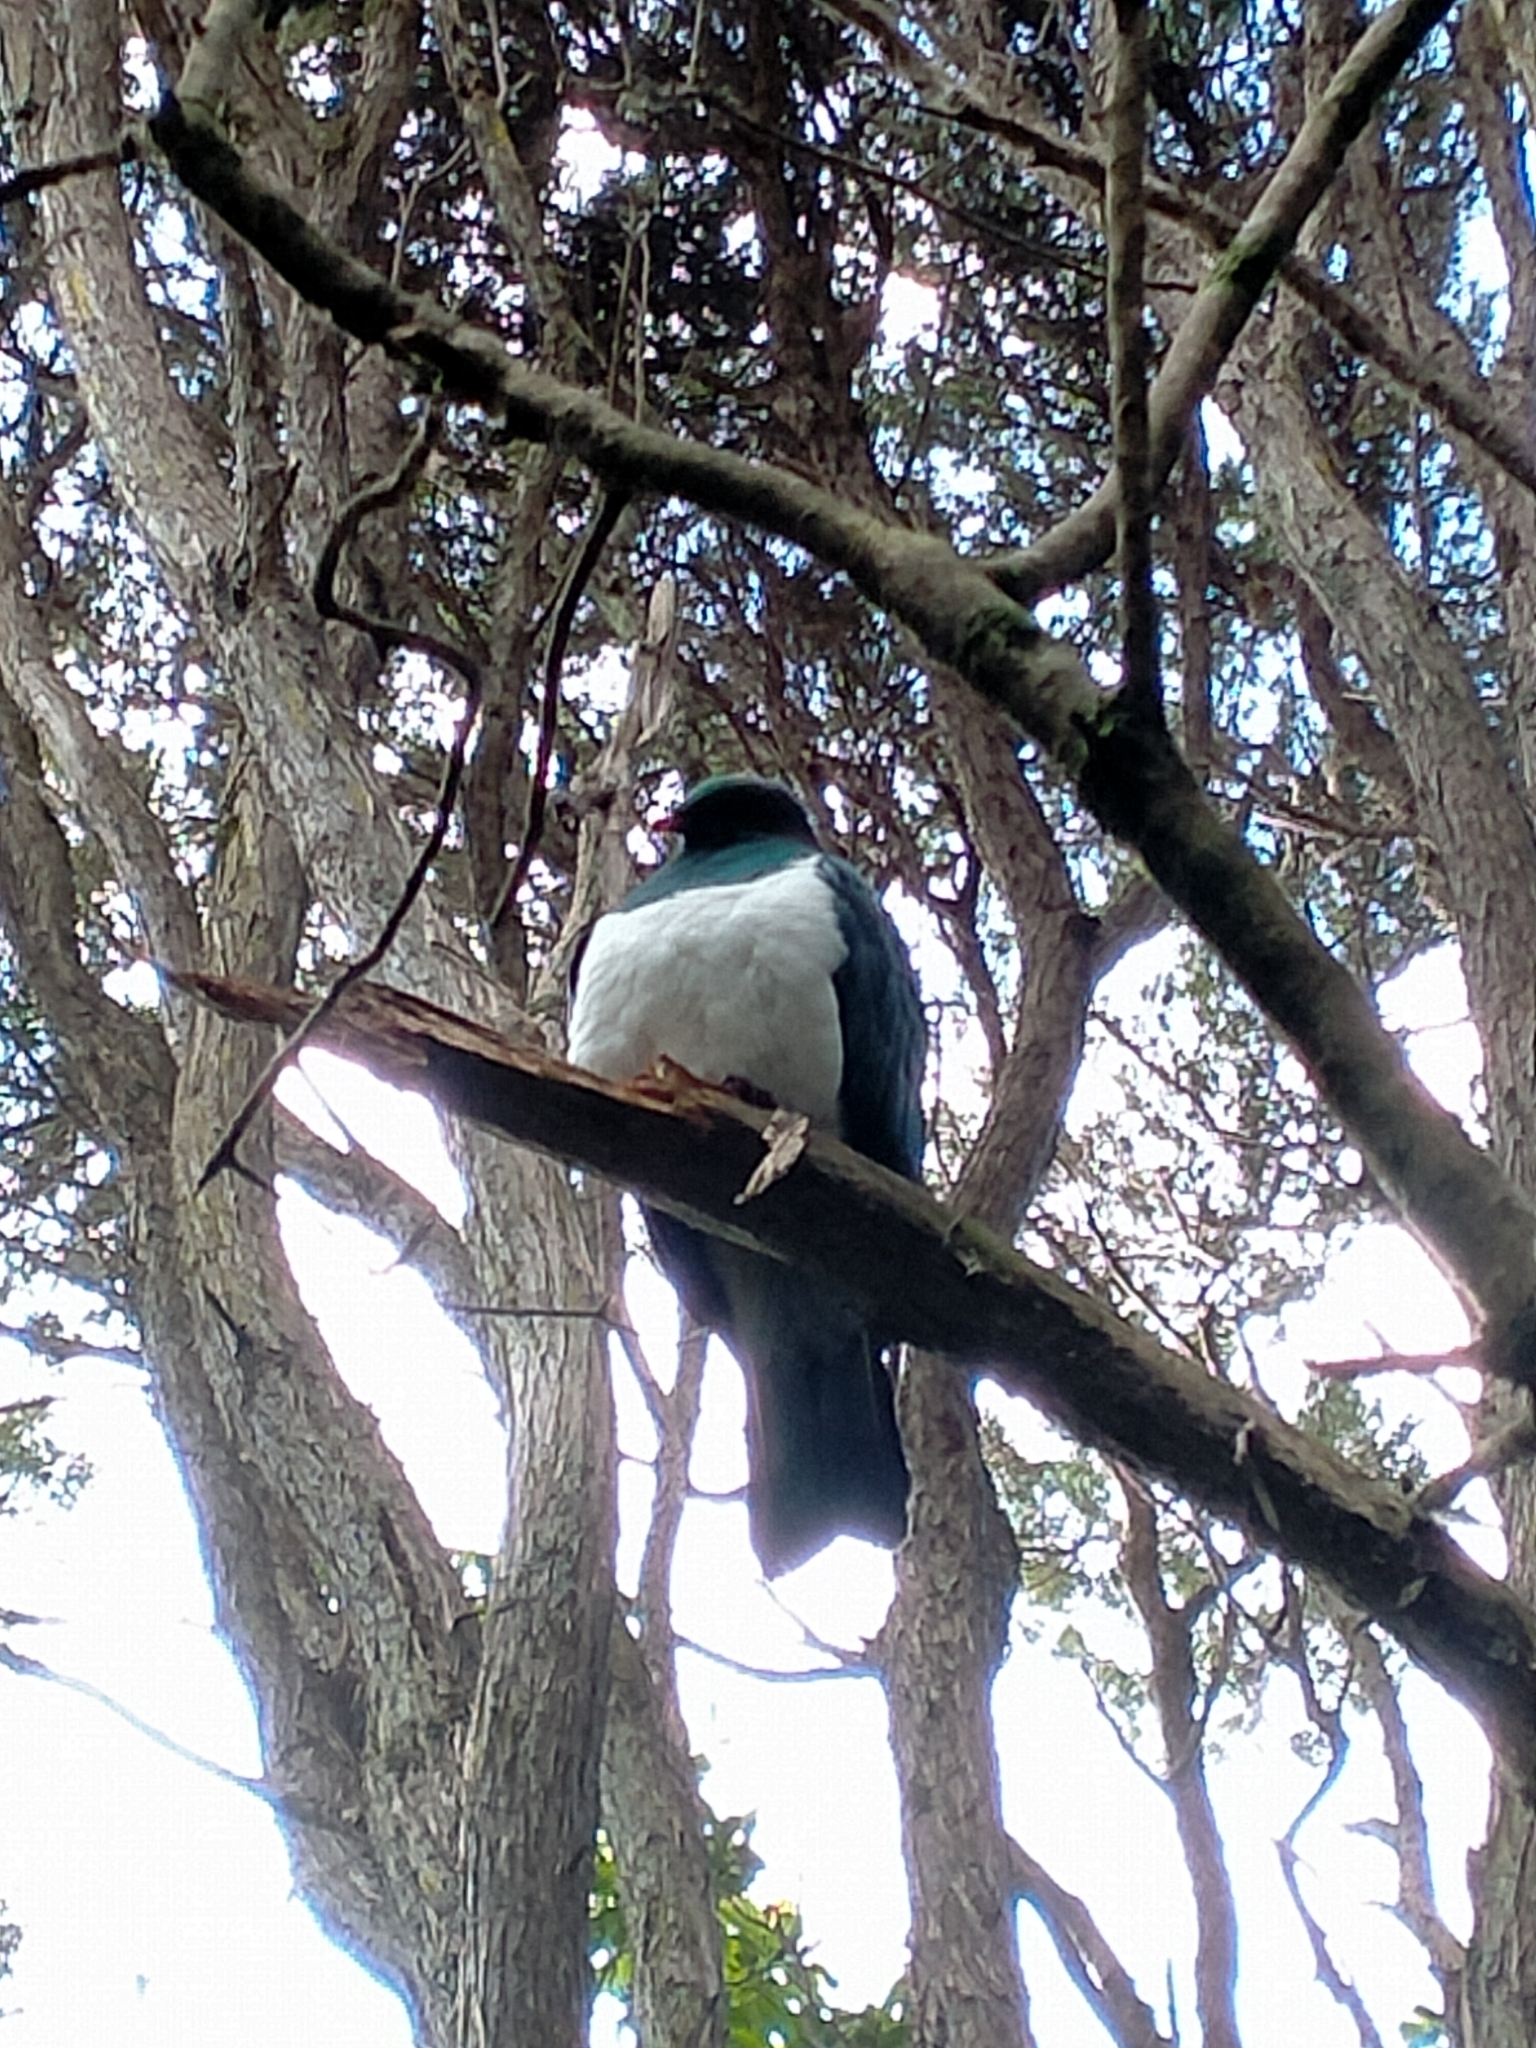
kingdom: Animalia
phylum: Chordata
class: Aves
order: Columbiformes
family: Columbidae
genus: Hemiphaga
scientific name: Hemiphaga novaeseelandiae
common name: New zealand pigeon
